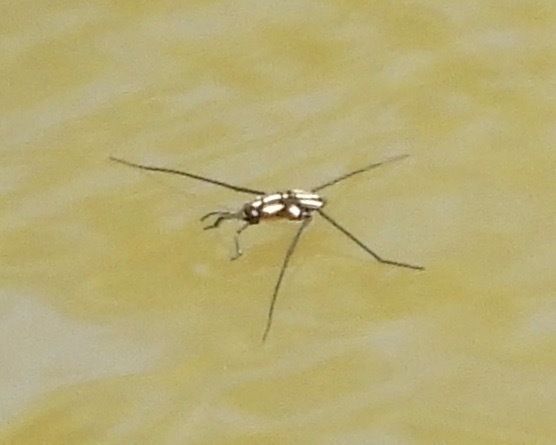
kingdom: Animalia
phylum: Arthropoda
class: Insecta
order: Hemiptera
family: Gerridae
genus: Metrobates
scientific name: Metrobates
